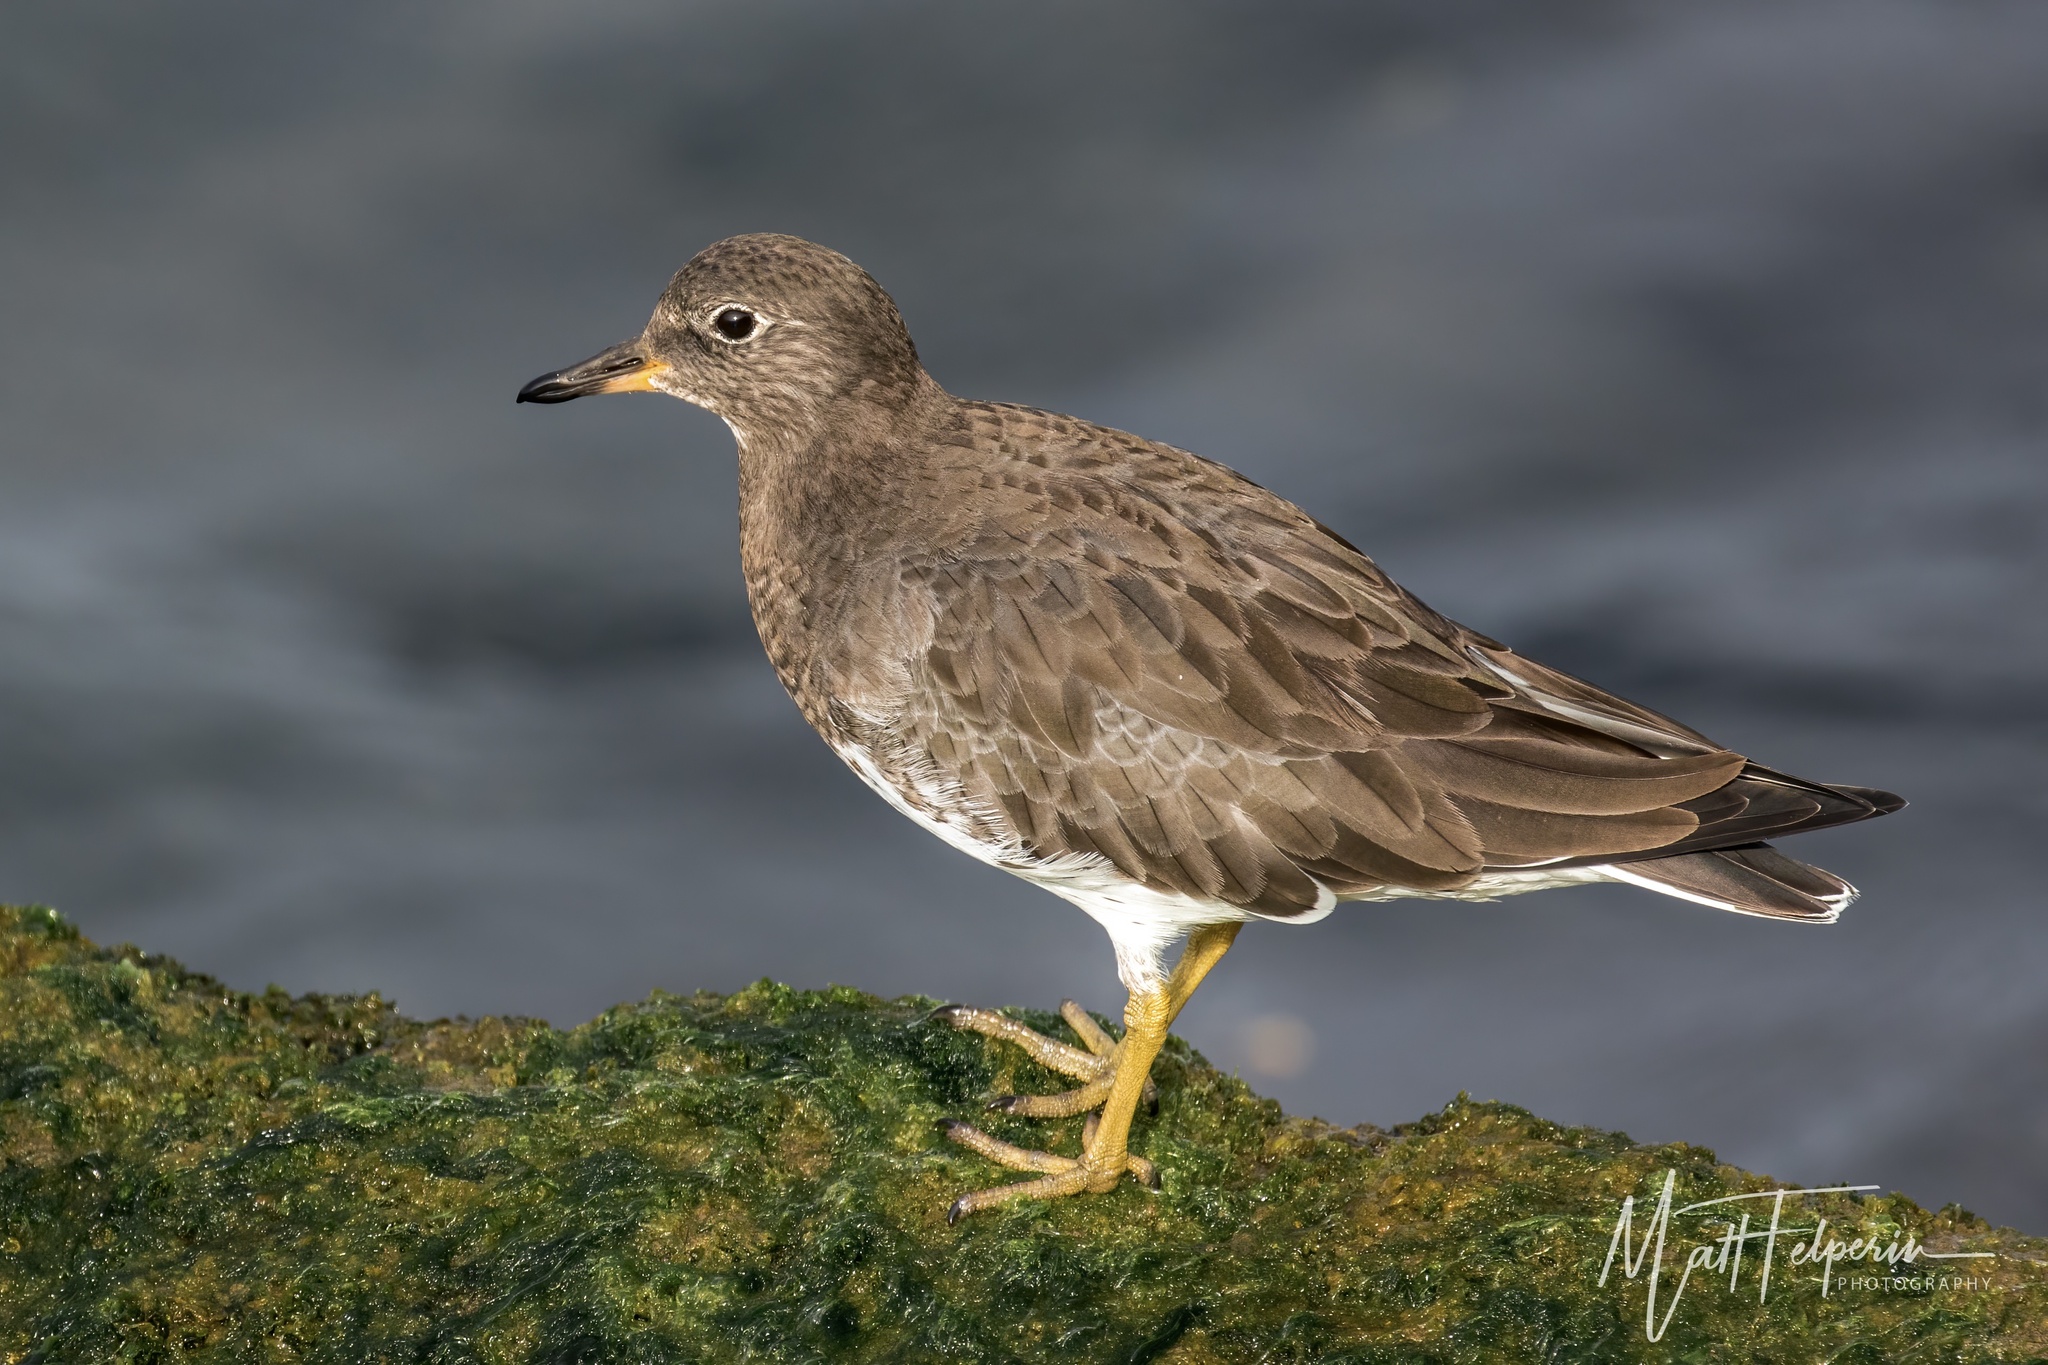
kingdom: Animalia
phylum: Chordata
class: Aves
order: Charadriiformes
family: Scolopacidae
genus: Calidris
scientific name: Calidris virgata
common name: Surfbird
